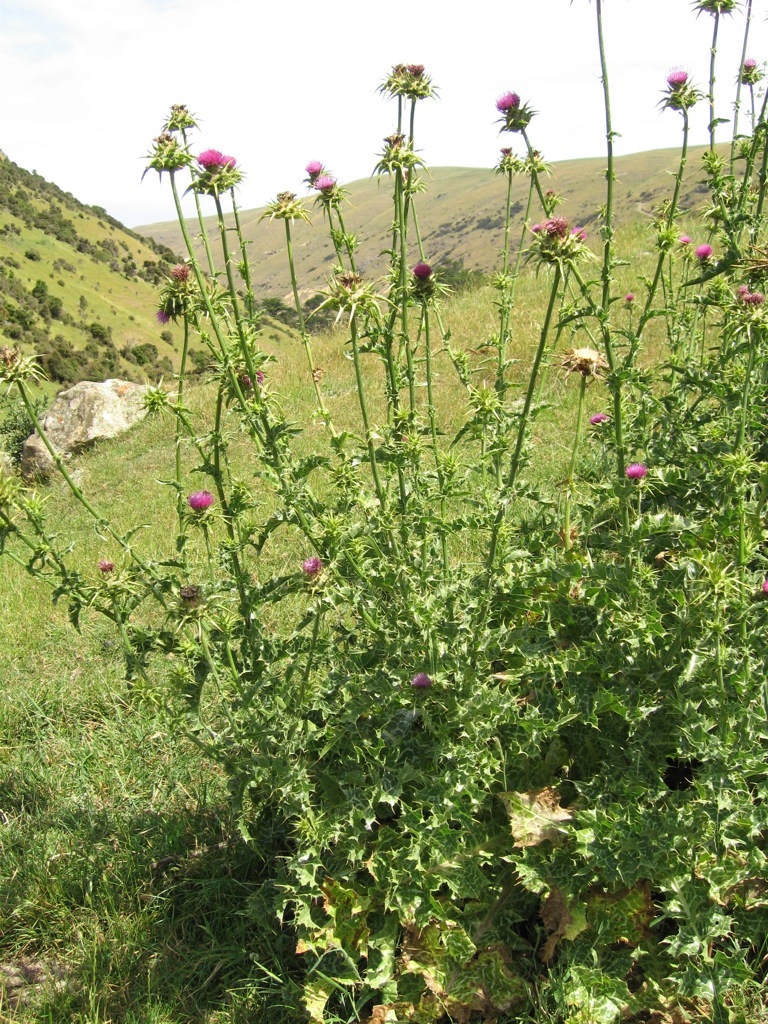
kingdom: Plantae
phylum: Tracheophyta
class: Magnoliopsida
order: Asterales
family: Asteraceae
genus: Silybum
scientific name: Silybum marianum
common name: Milk thistle
